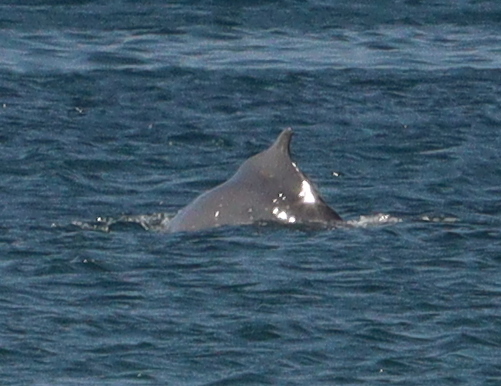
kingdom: Animalia
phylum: Chordata
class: Mammalia
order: Cetacea
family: Delphinidae
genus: Sousa
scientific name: Sousa plumbea
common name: Indian ocean humpback dolphin
